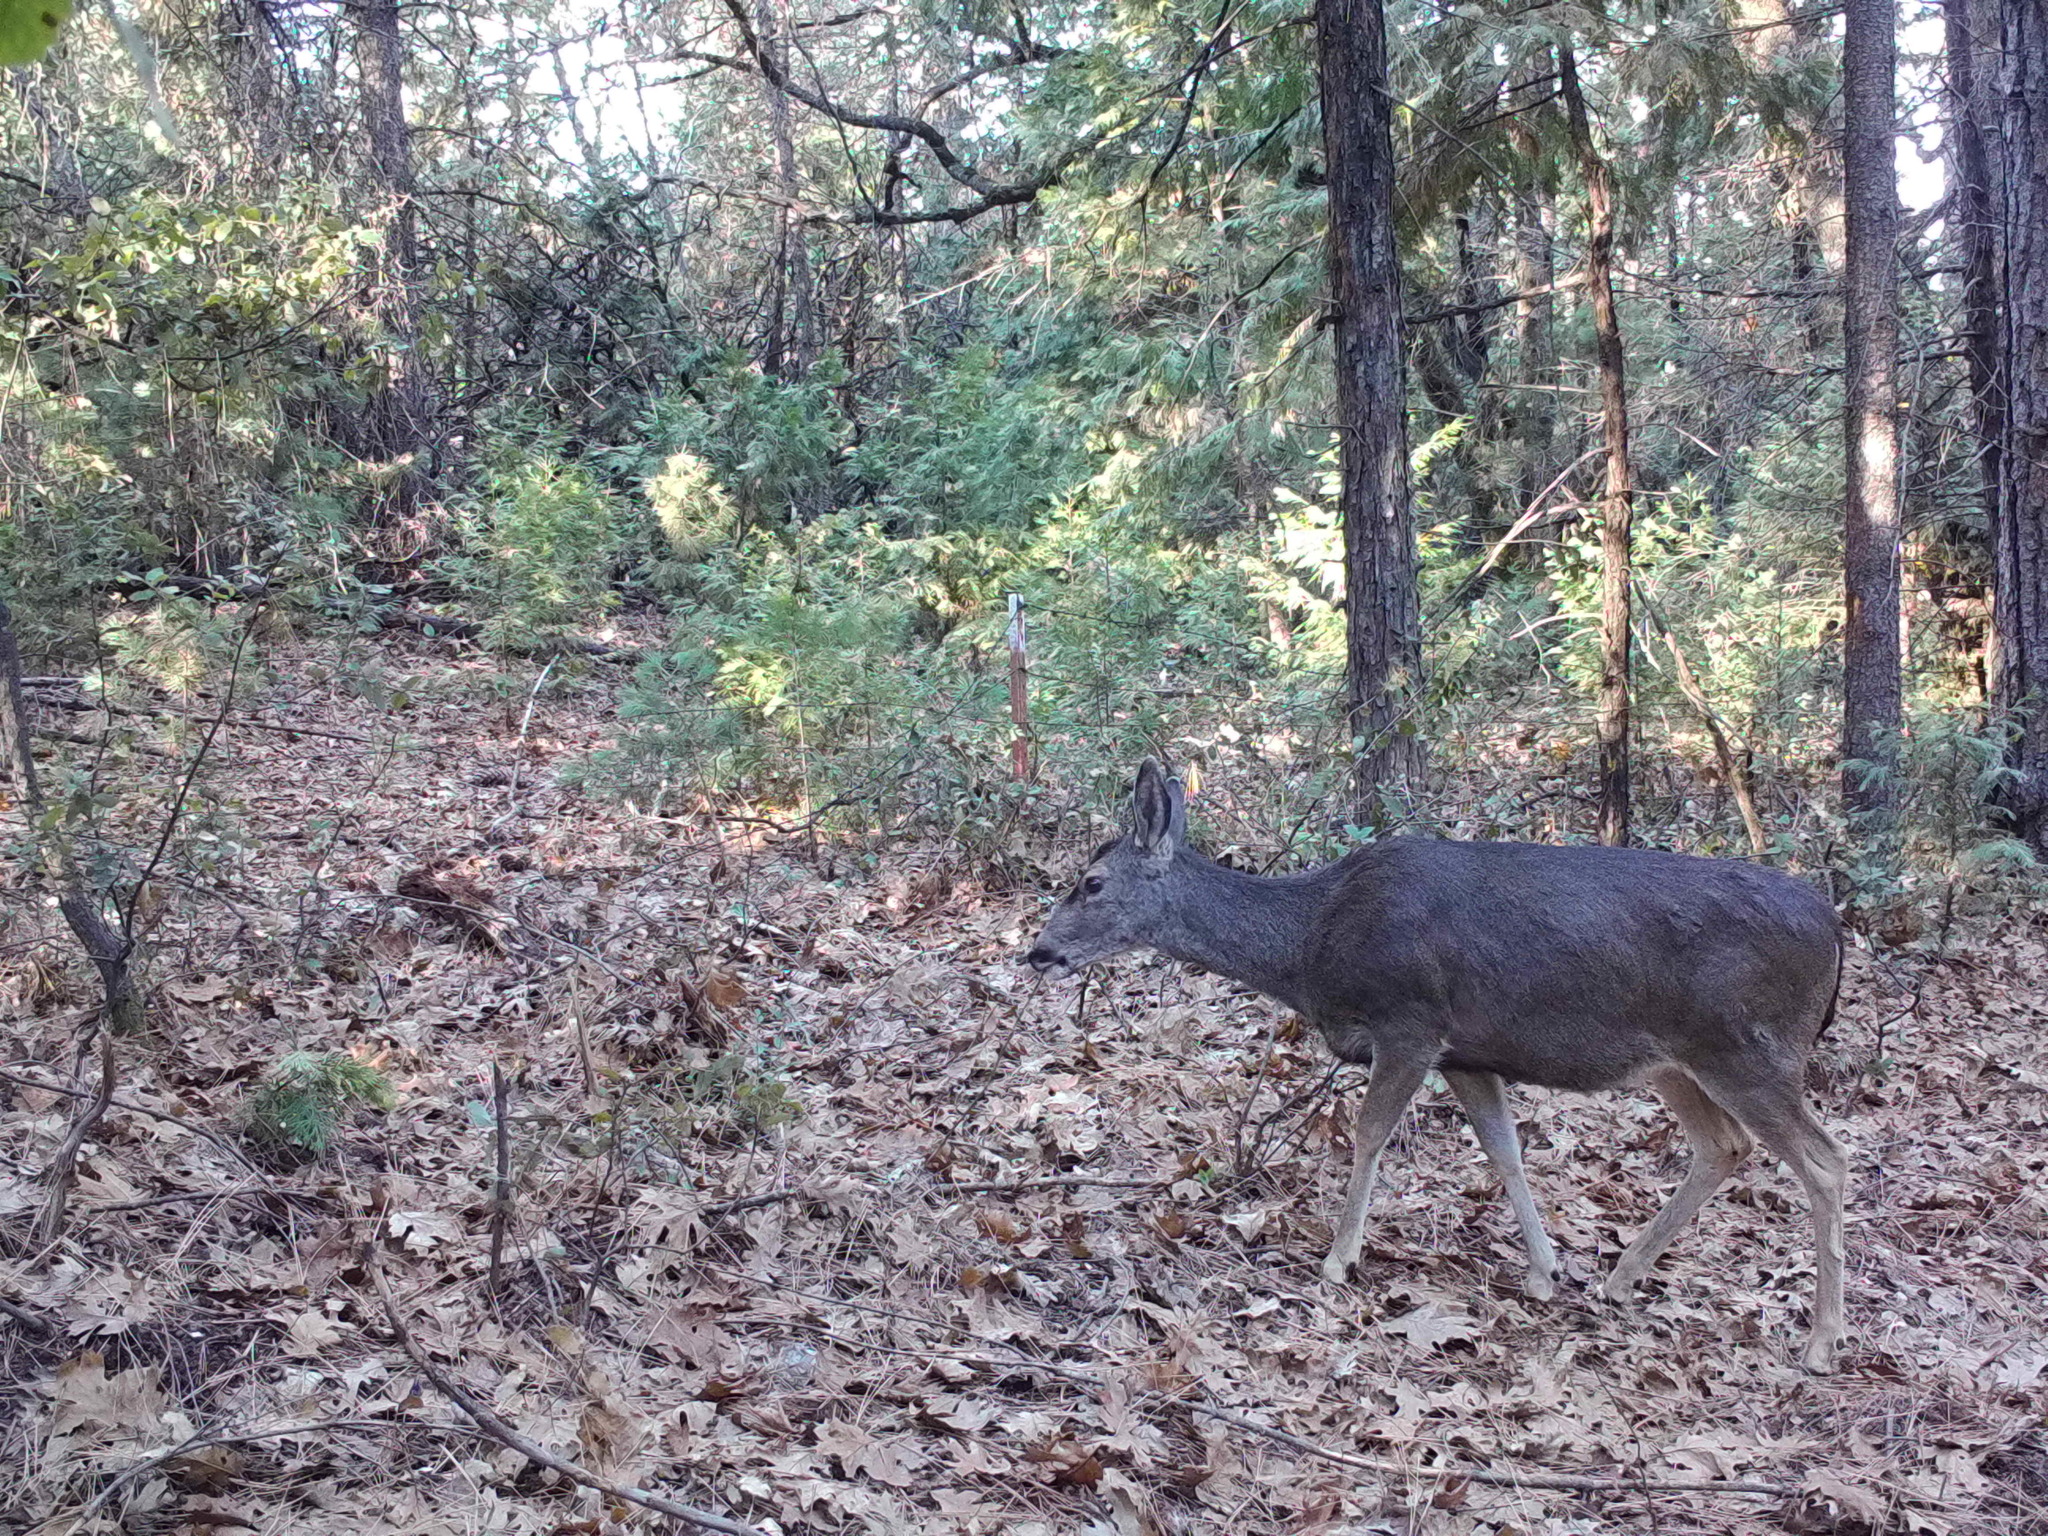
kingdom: Animalia
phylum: Chordata
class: Mammalia
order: Artiodactyla
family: Cervidae
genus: Odocoileus
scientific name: Odocoileus hemionus
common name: Mule deer
